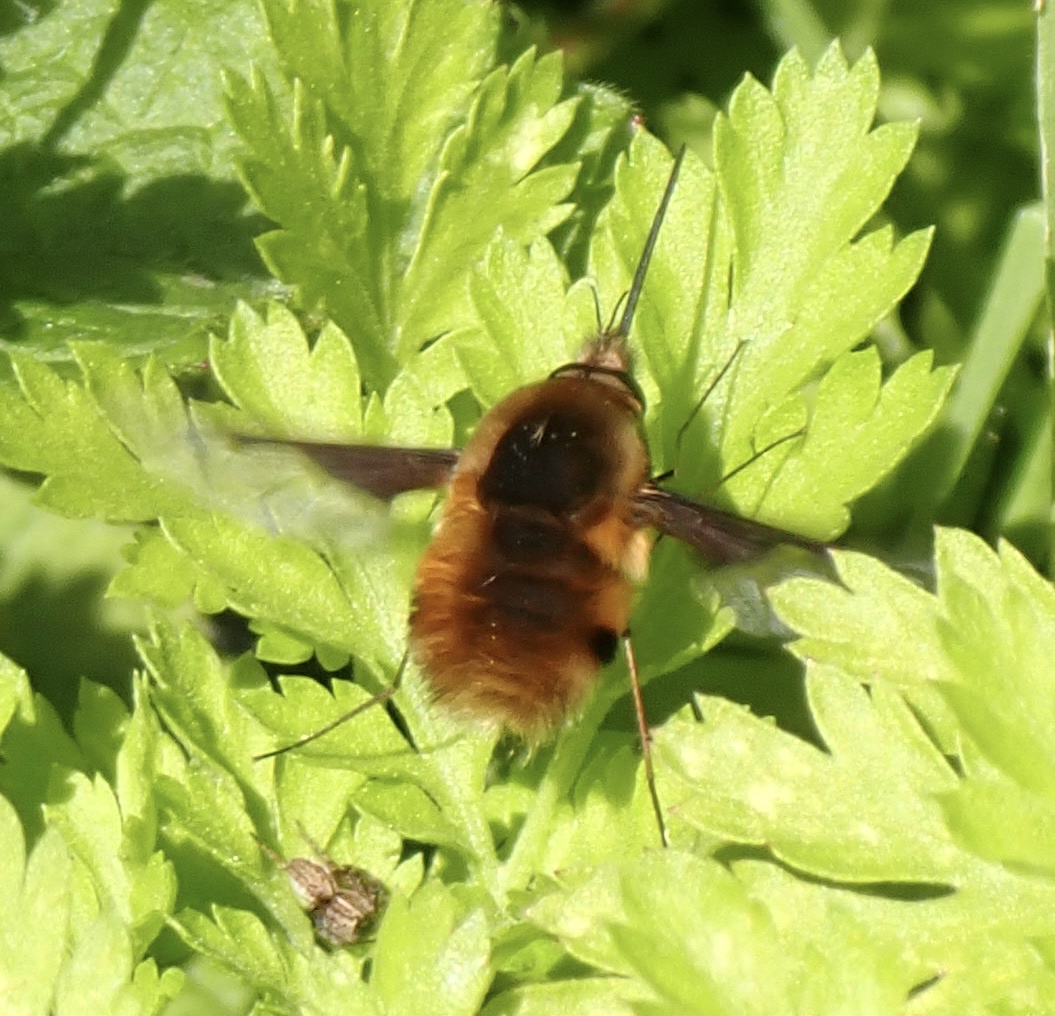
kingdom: Animalia
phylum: Arthropoda
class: Insecta
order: Diptera
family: Bombyliidae
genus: Bombylius
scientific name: Bombylius major
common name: Bee fly
